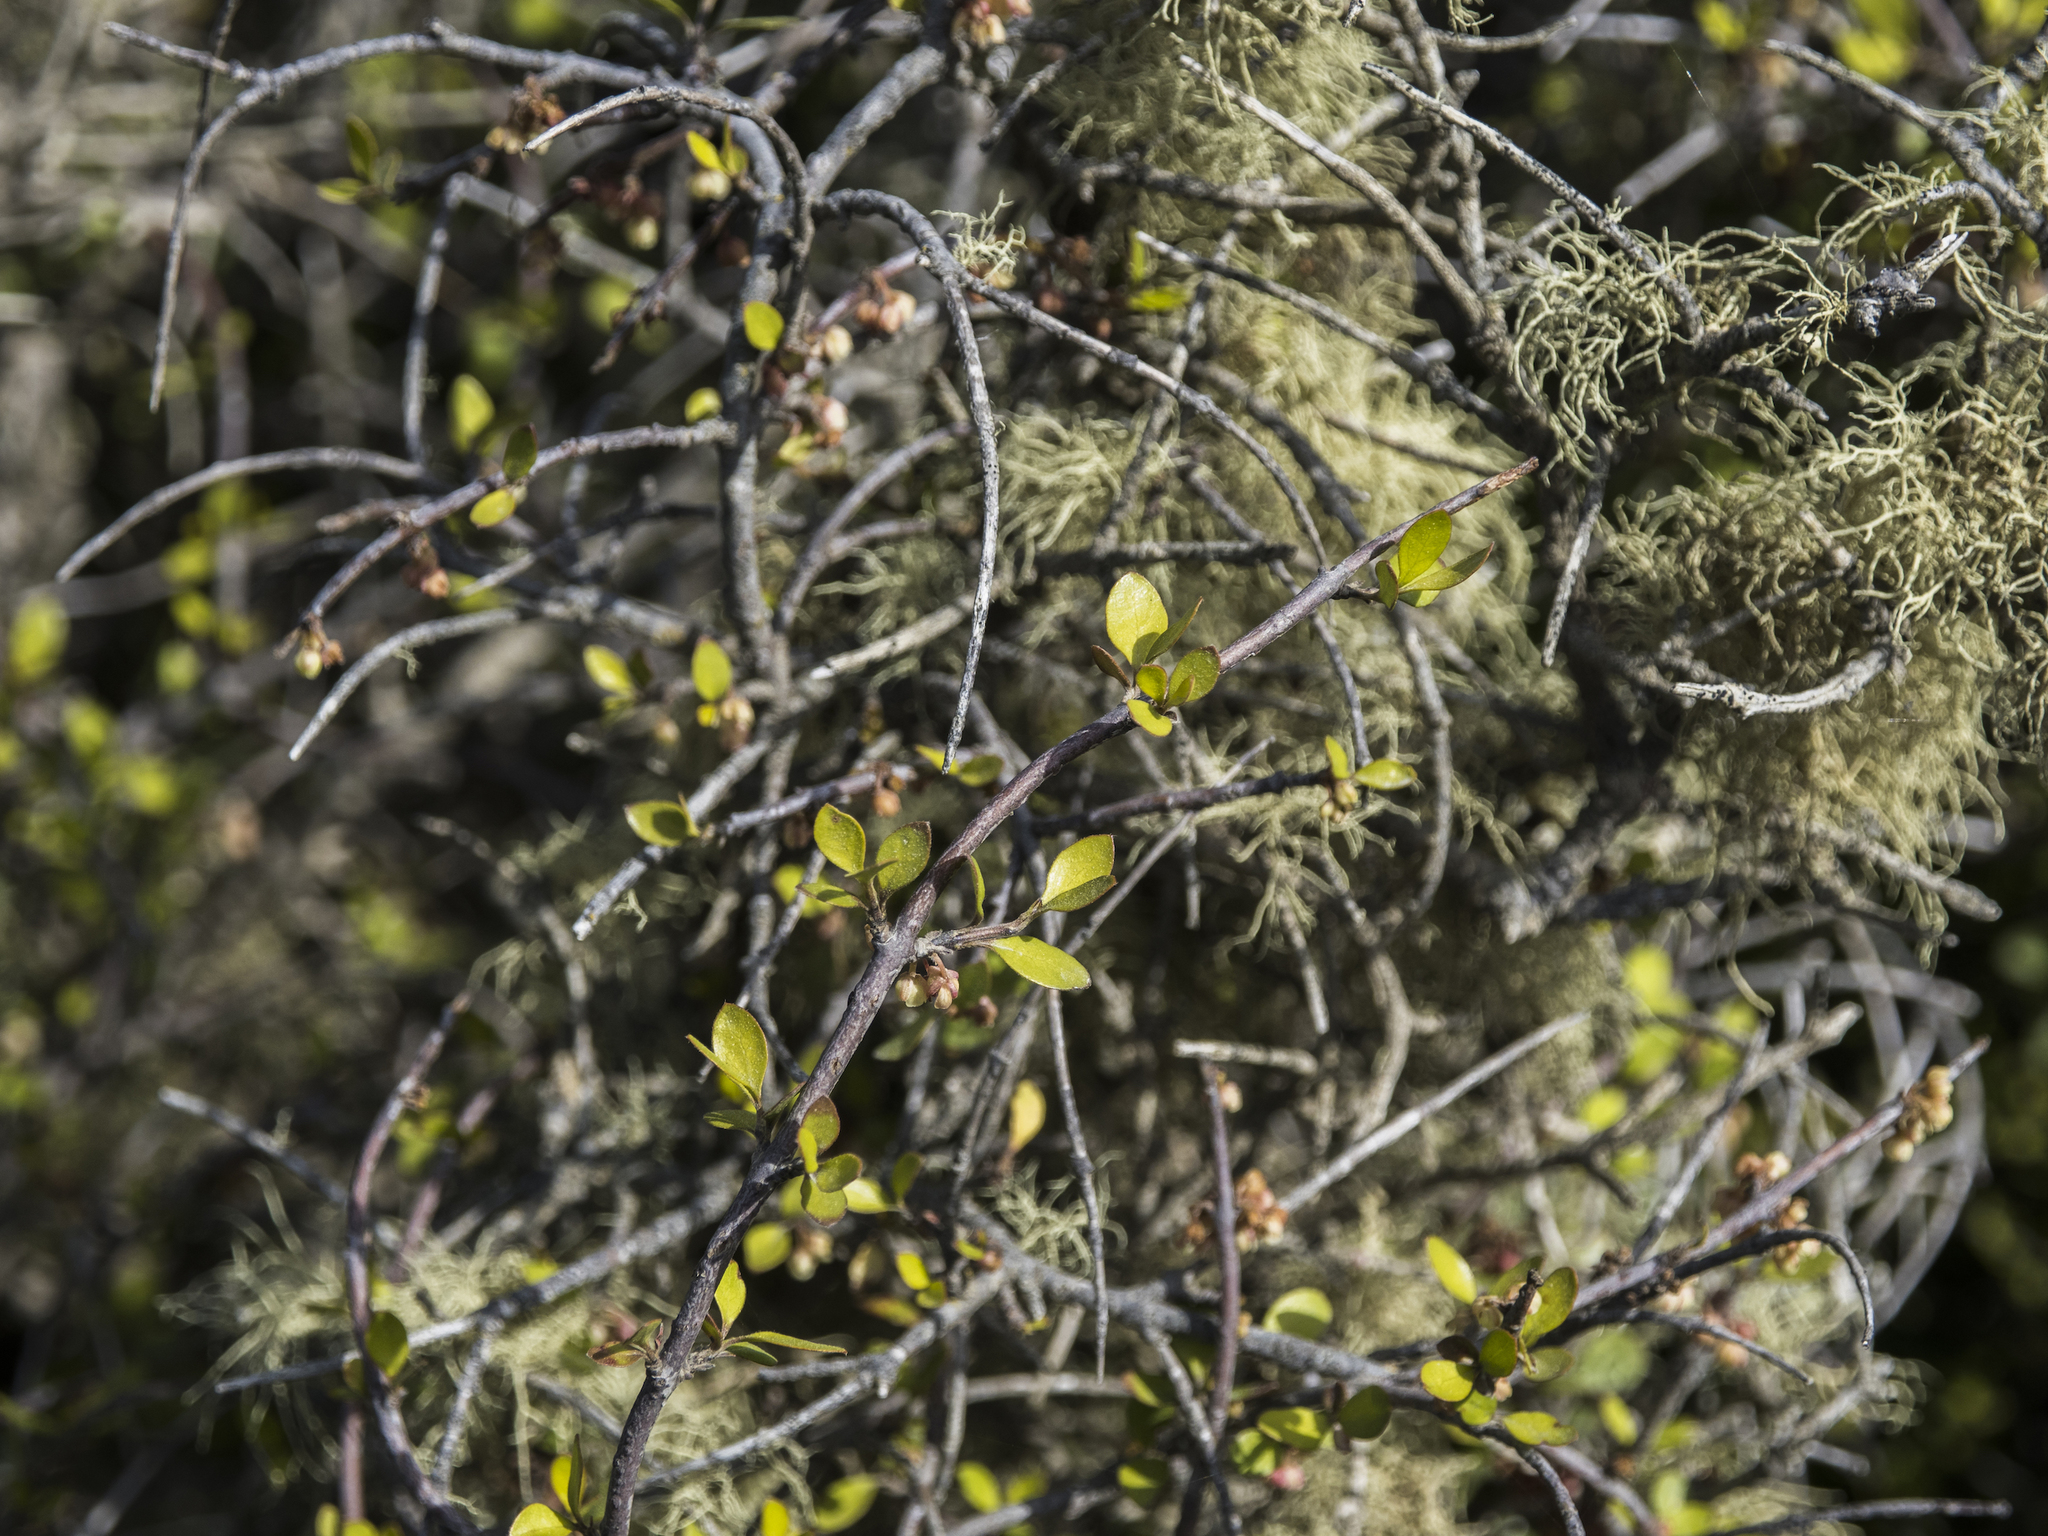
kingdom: Plantae
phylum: Tracheophyta
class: Magnoliopsida
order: Oxalidales
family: Elaeocarpaceae
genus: Aristotelia
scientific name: Aristotelia fruticosa
